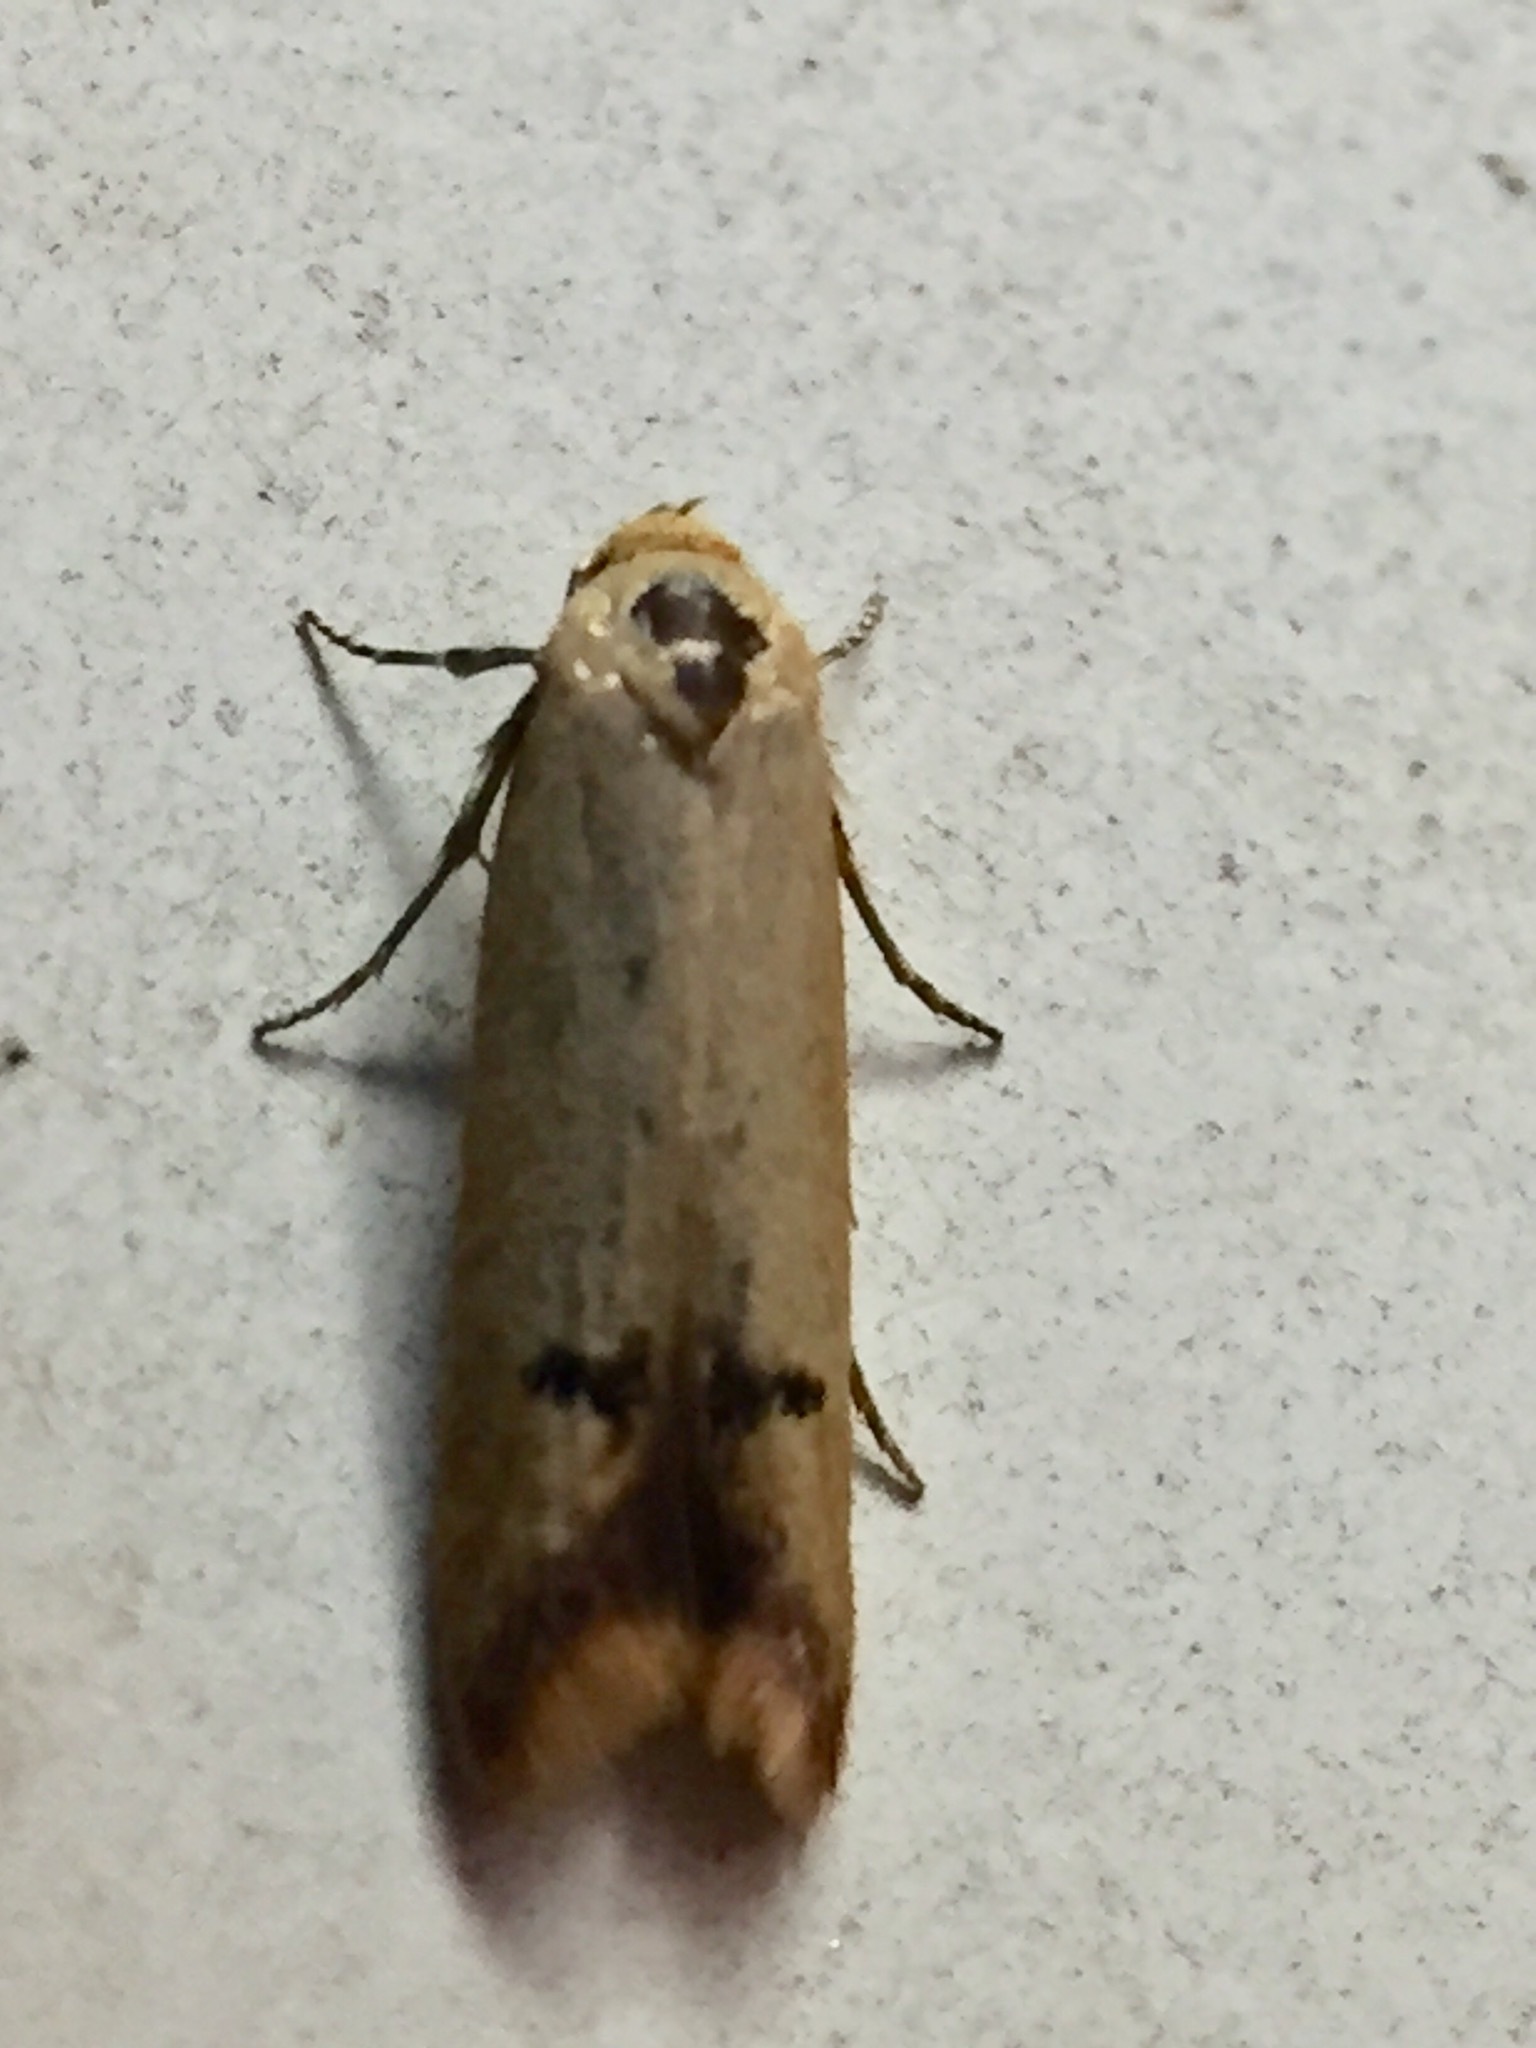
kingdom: Animalia
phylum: Arthropoda
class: Insecta
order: Lepidoptera
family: Oecophoridae
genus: Tachystola
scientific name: Tachystola hemisema
